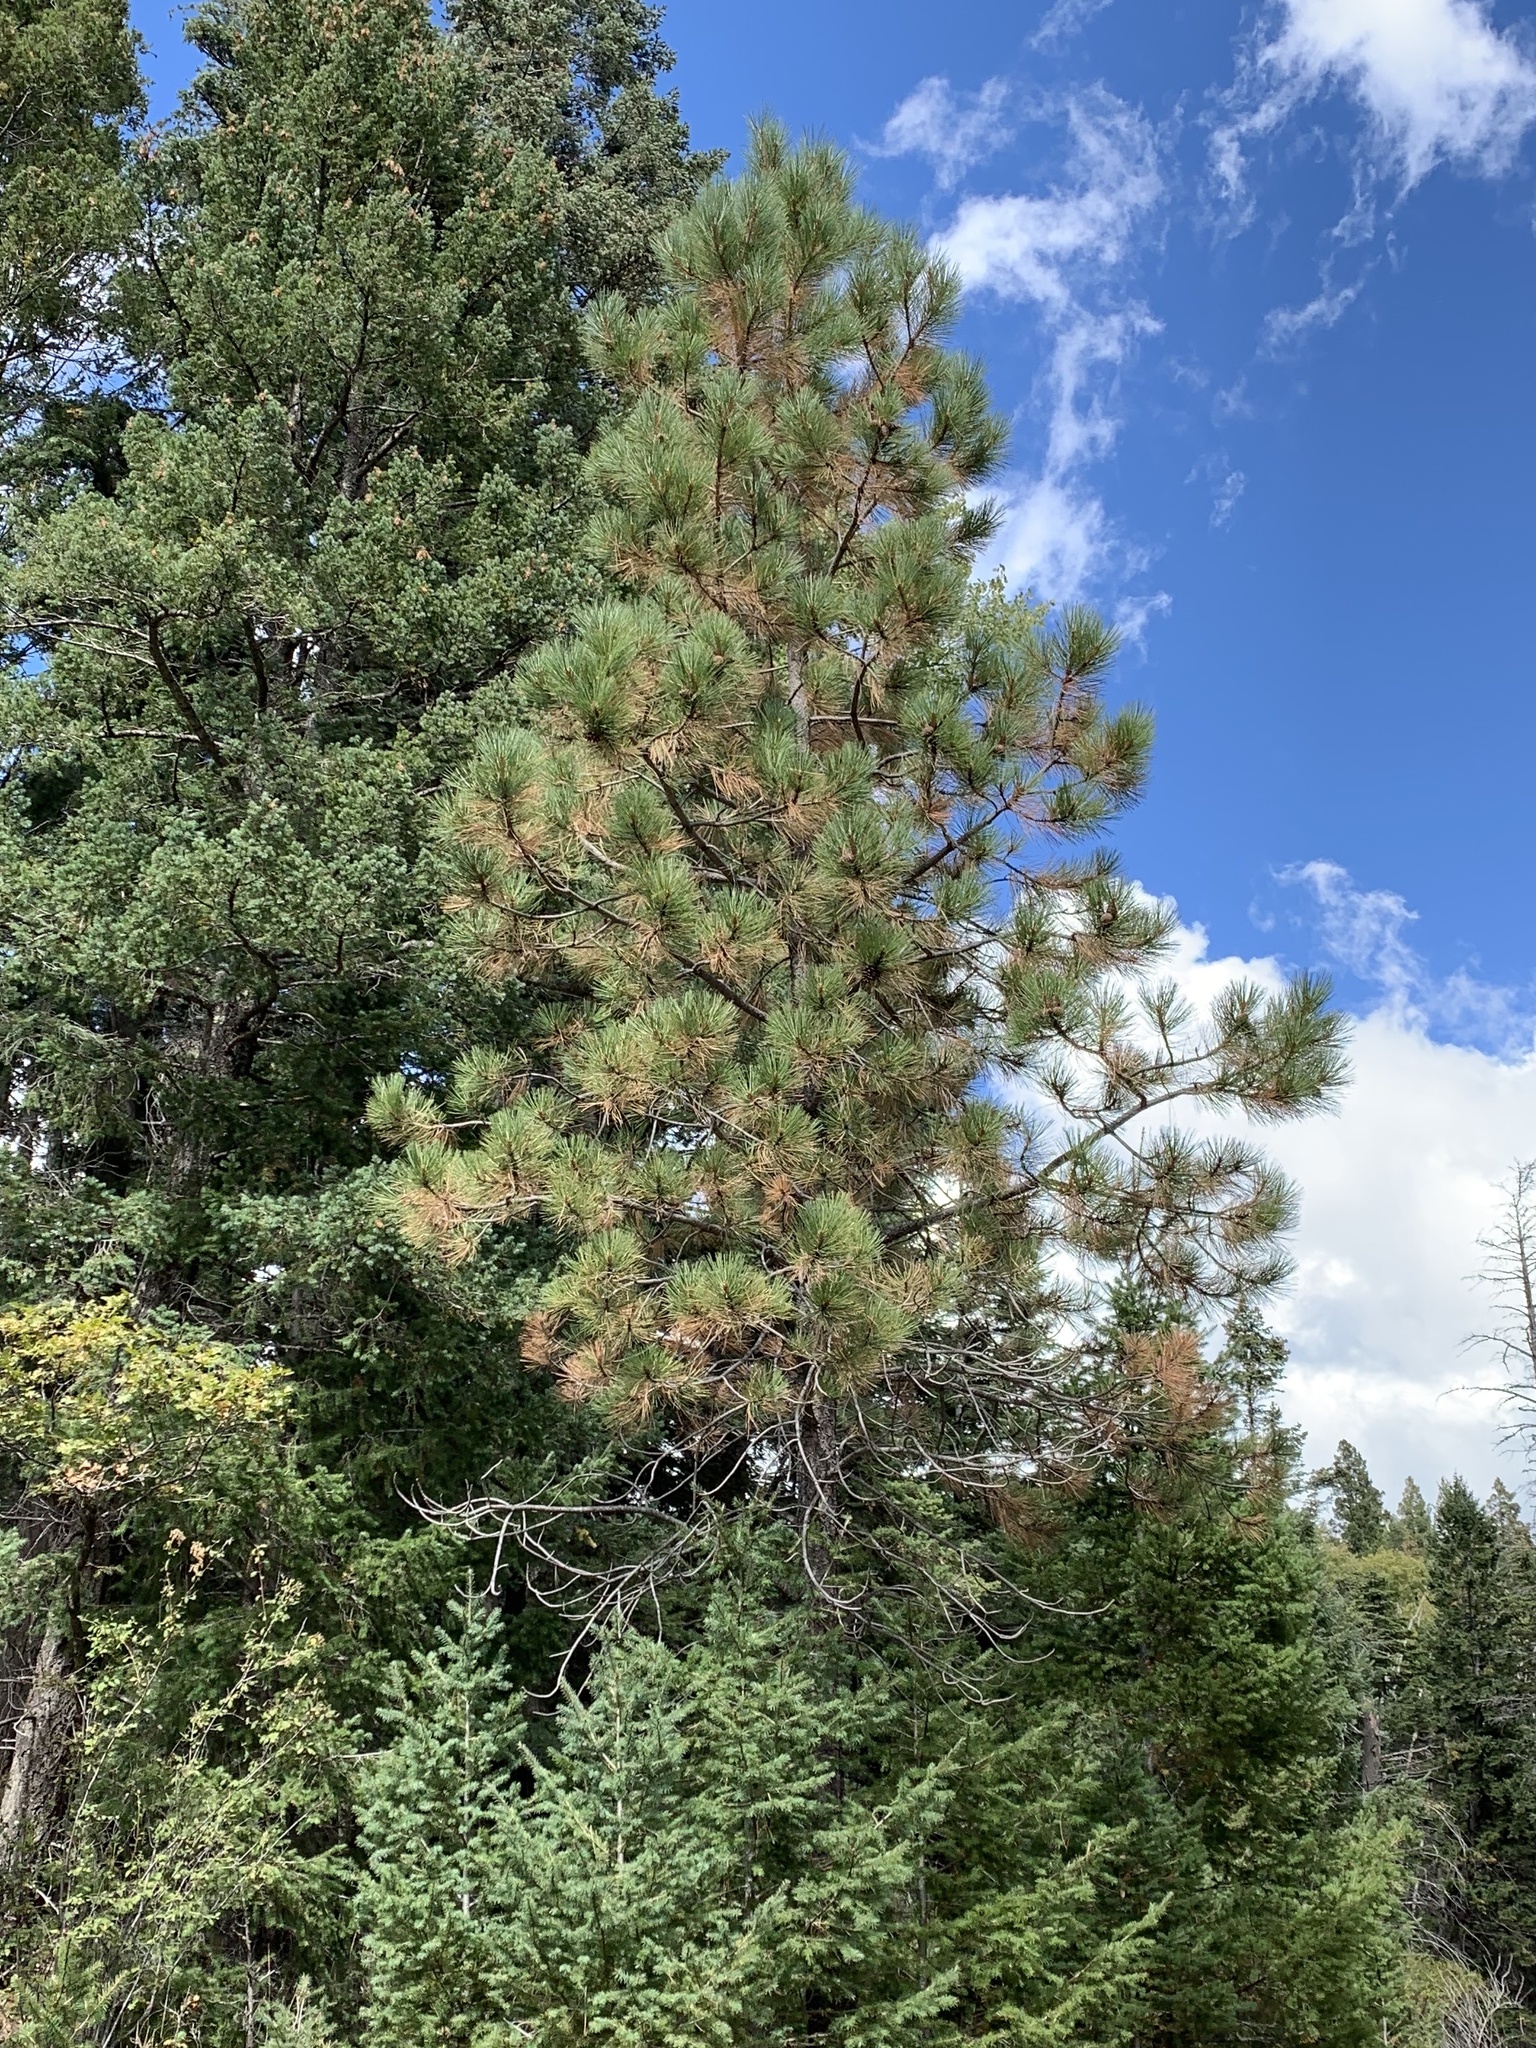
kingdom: Plantae
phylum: Tracheophyta
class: Pinopsida
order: Pinales
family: Pinaceae
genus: Pinus
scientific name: Pinus ponderosa
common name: Western yellow-pine
